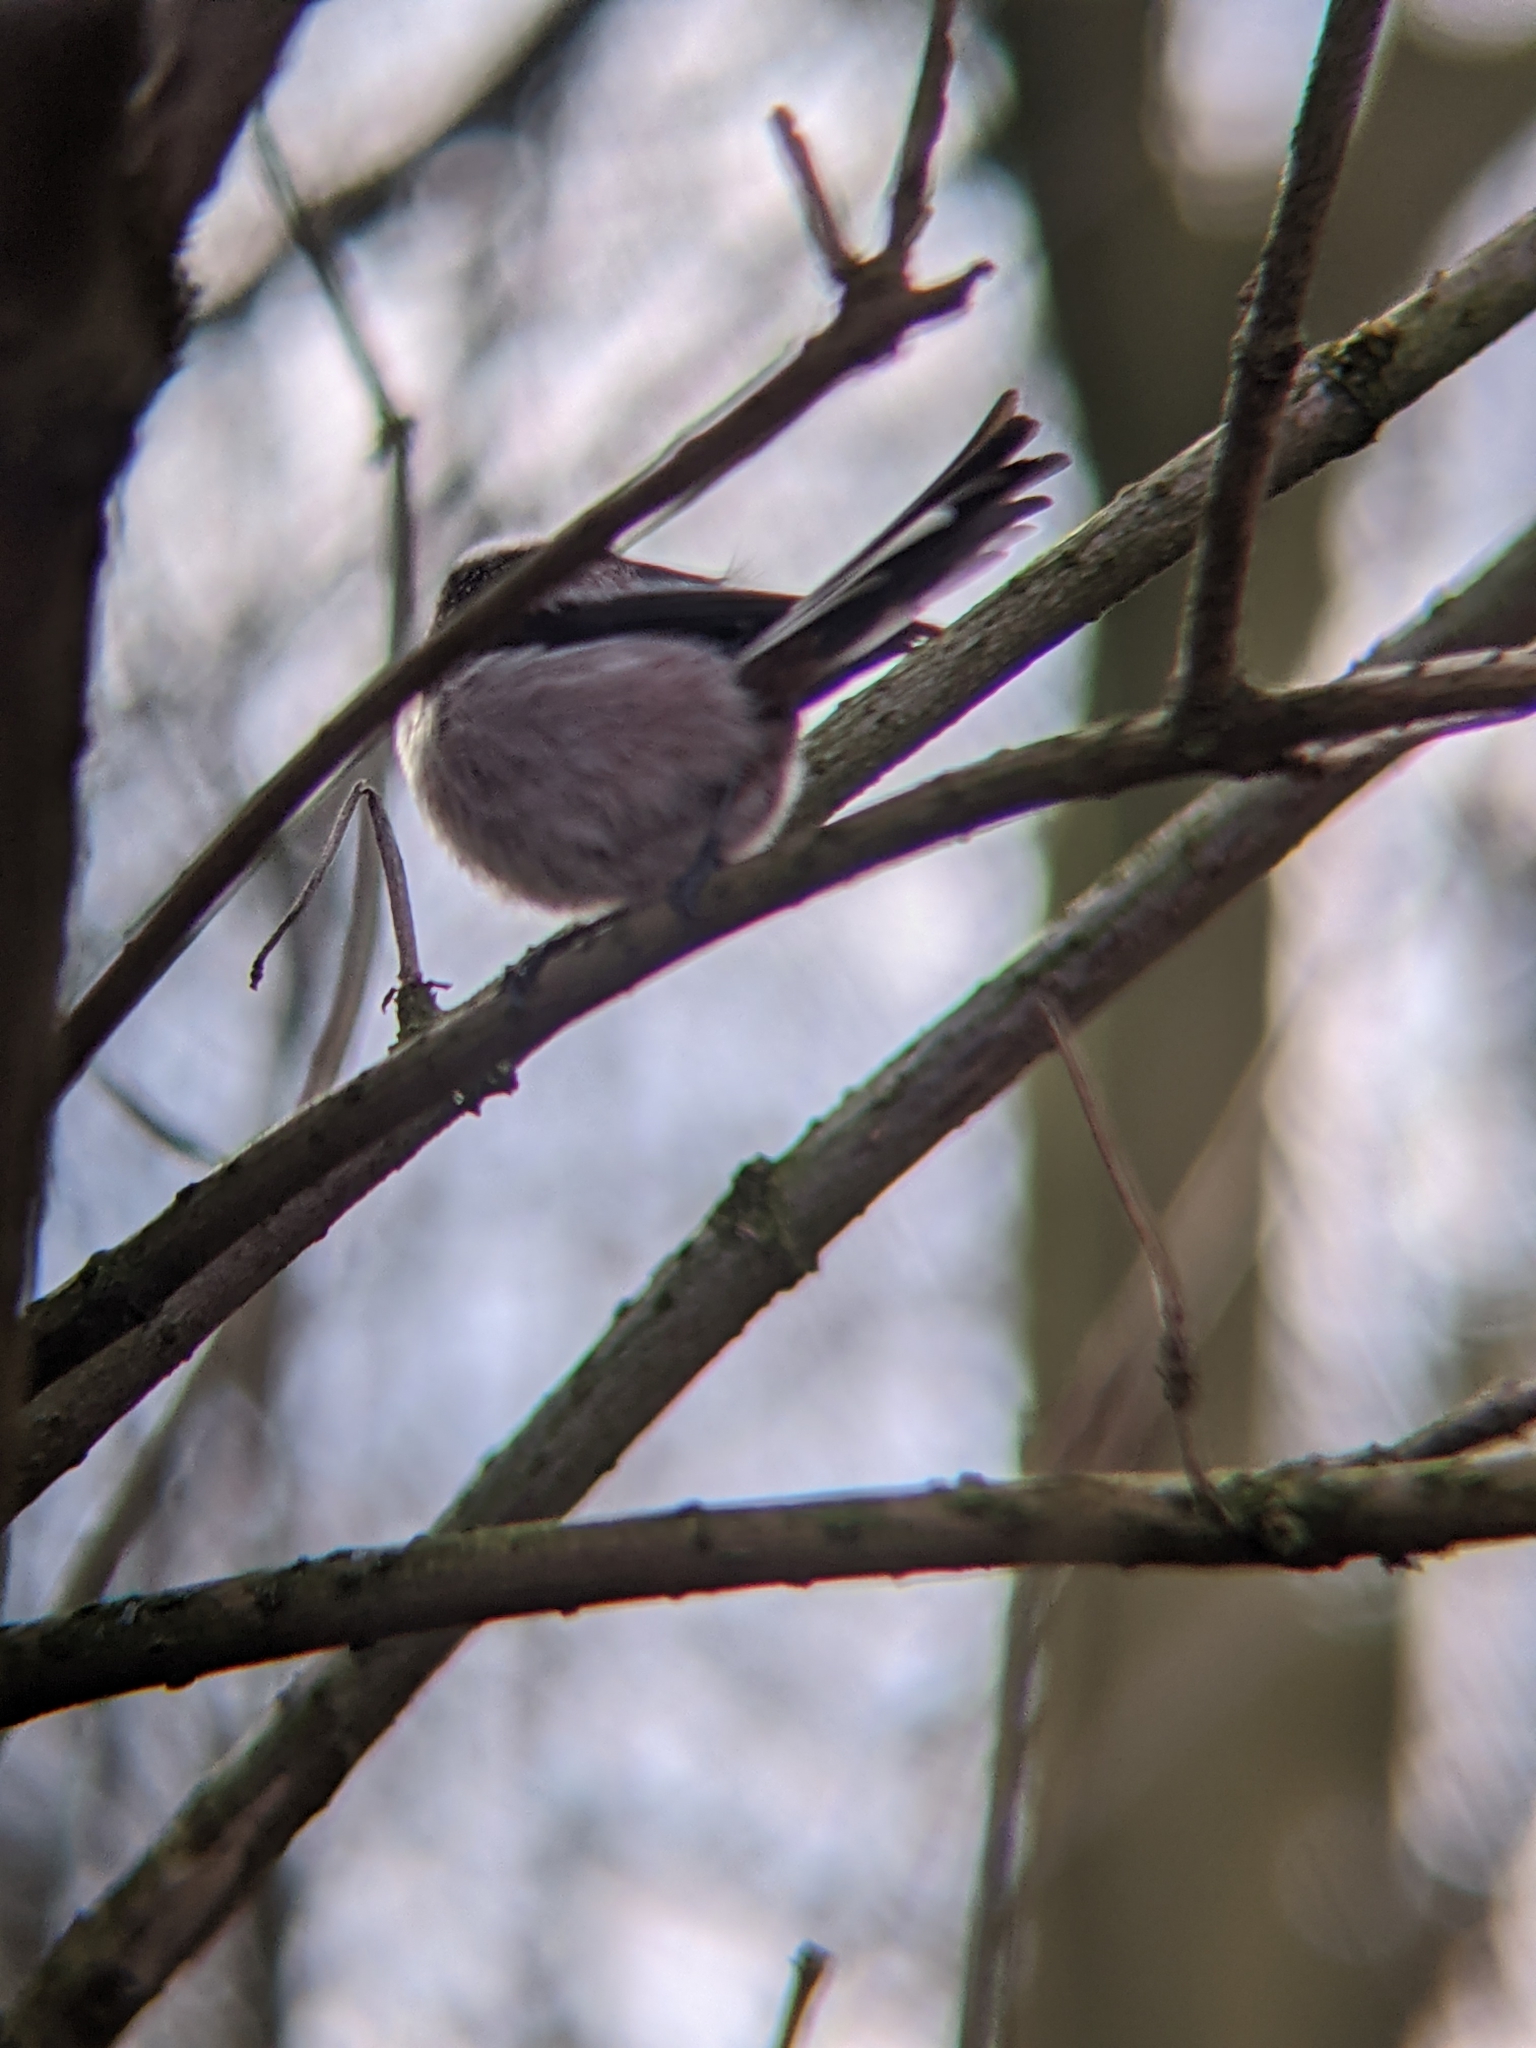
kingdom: Animalia
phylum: Chordata
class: Aves
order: Passeriformes
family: Aegithalidae
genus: Aegithalos
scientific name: Aegithalos caudatus
